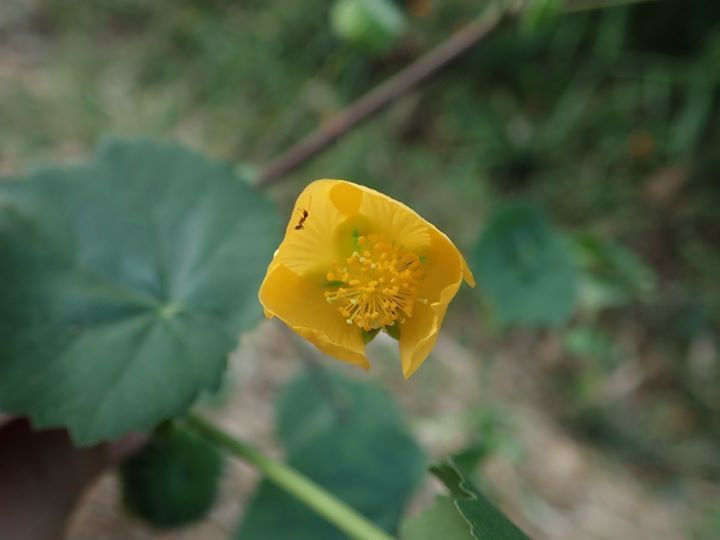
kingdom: Plantae
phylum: Tracheophyta
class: Magnoliopsida
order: Malvales
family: Malvaceae
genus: Abutilon
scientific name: Abutilon indicum
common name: Indian abutilon
